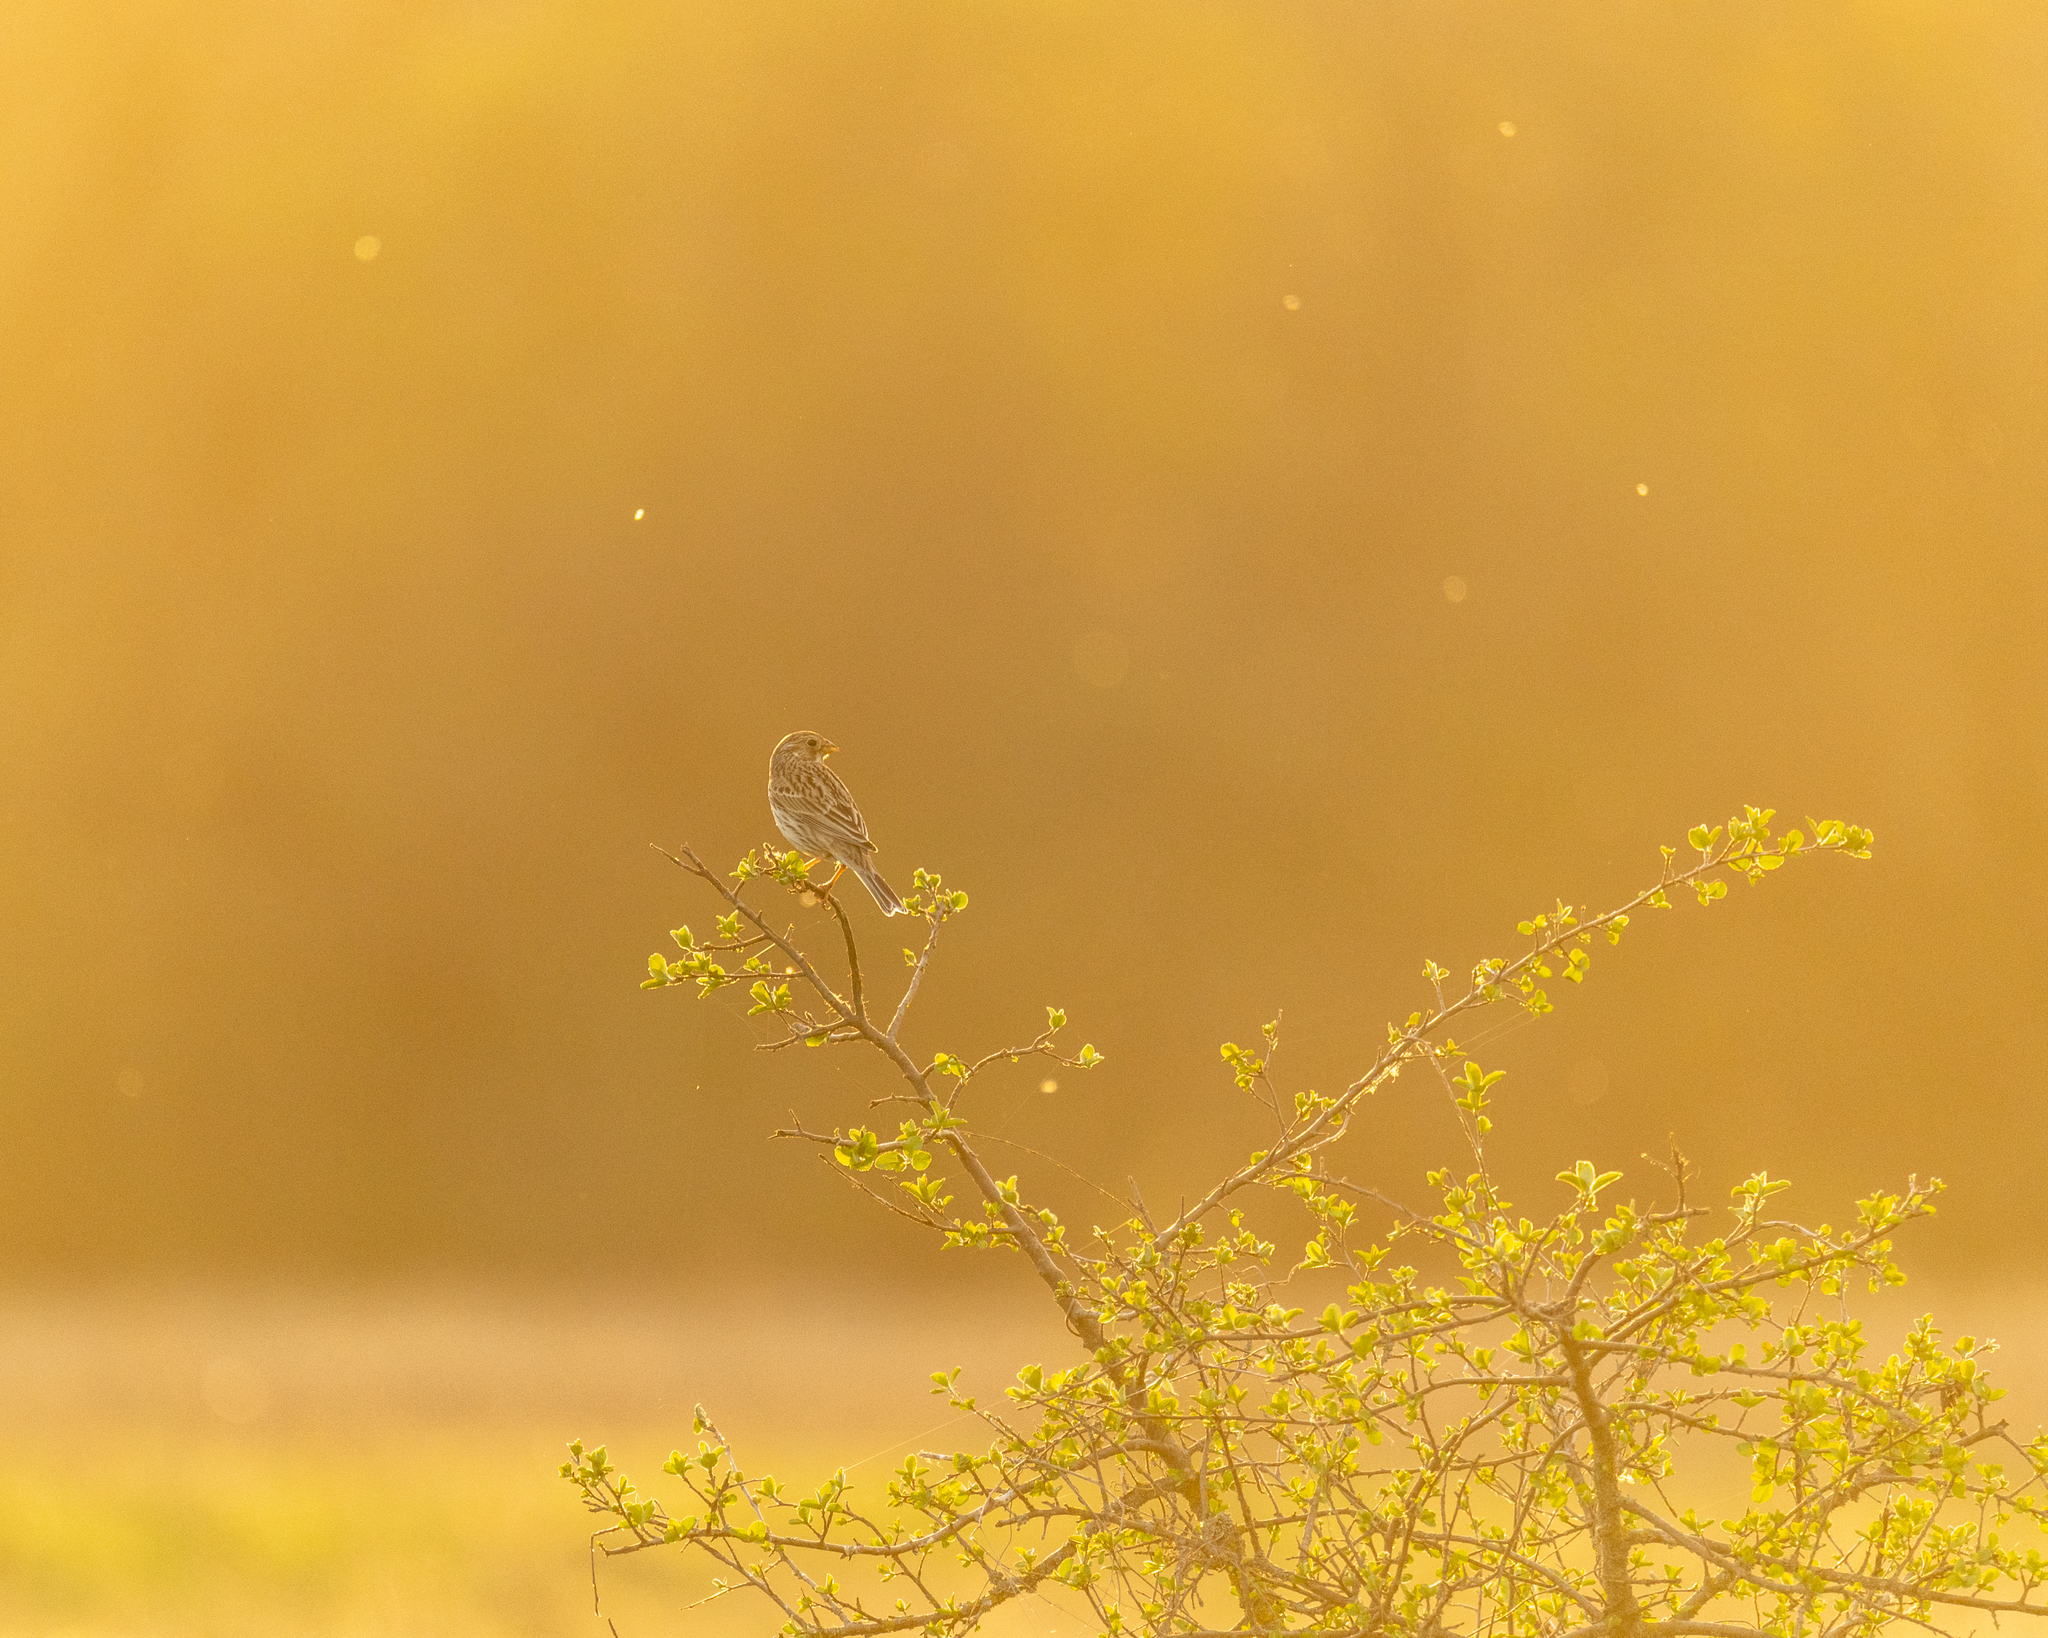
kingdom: Animalia
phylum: Chordata
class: Aves
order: Passeriformes
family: Emberizidae
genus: Emberiza
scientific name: Emberiza calandra
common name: Corn bunting
